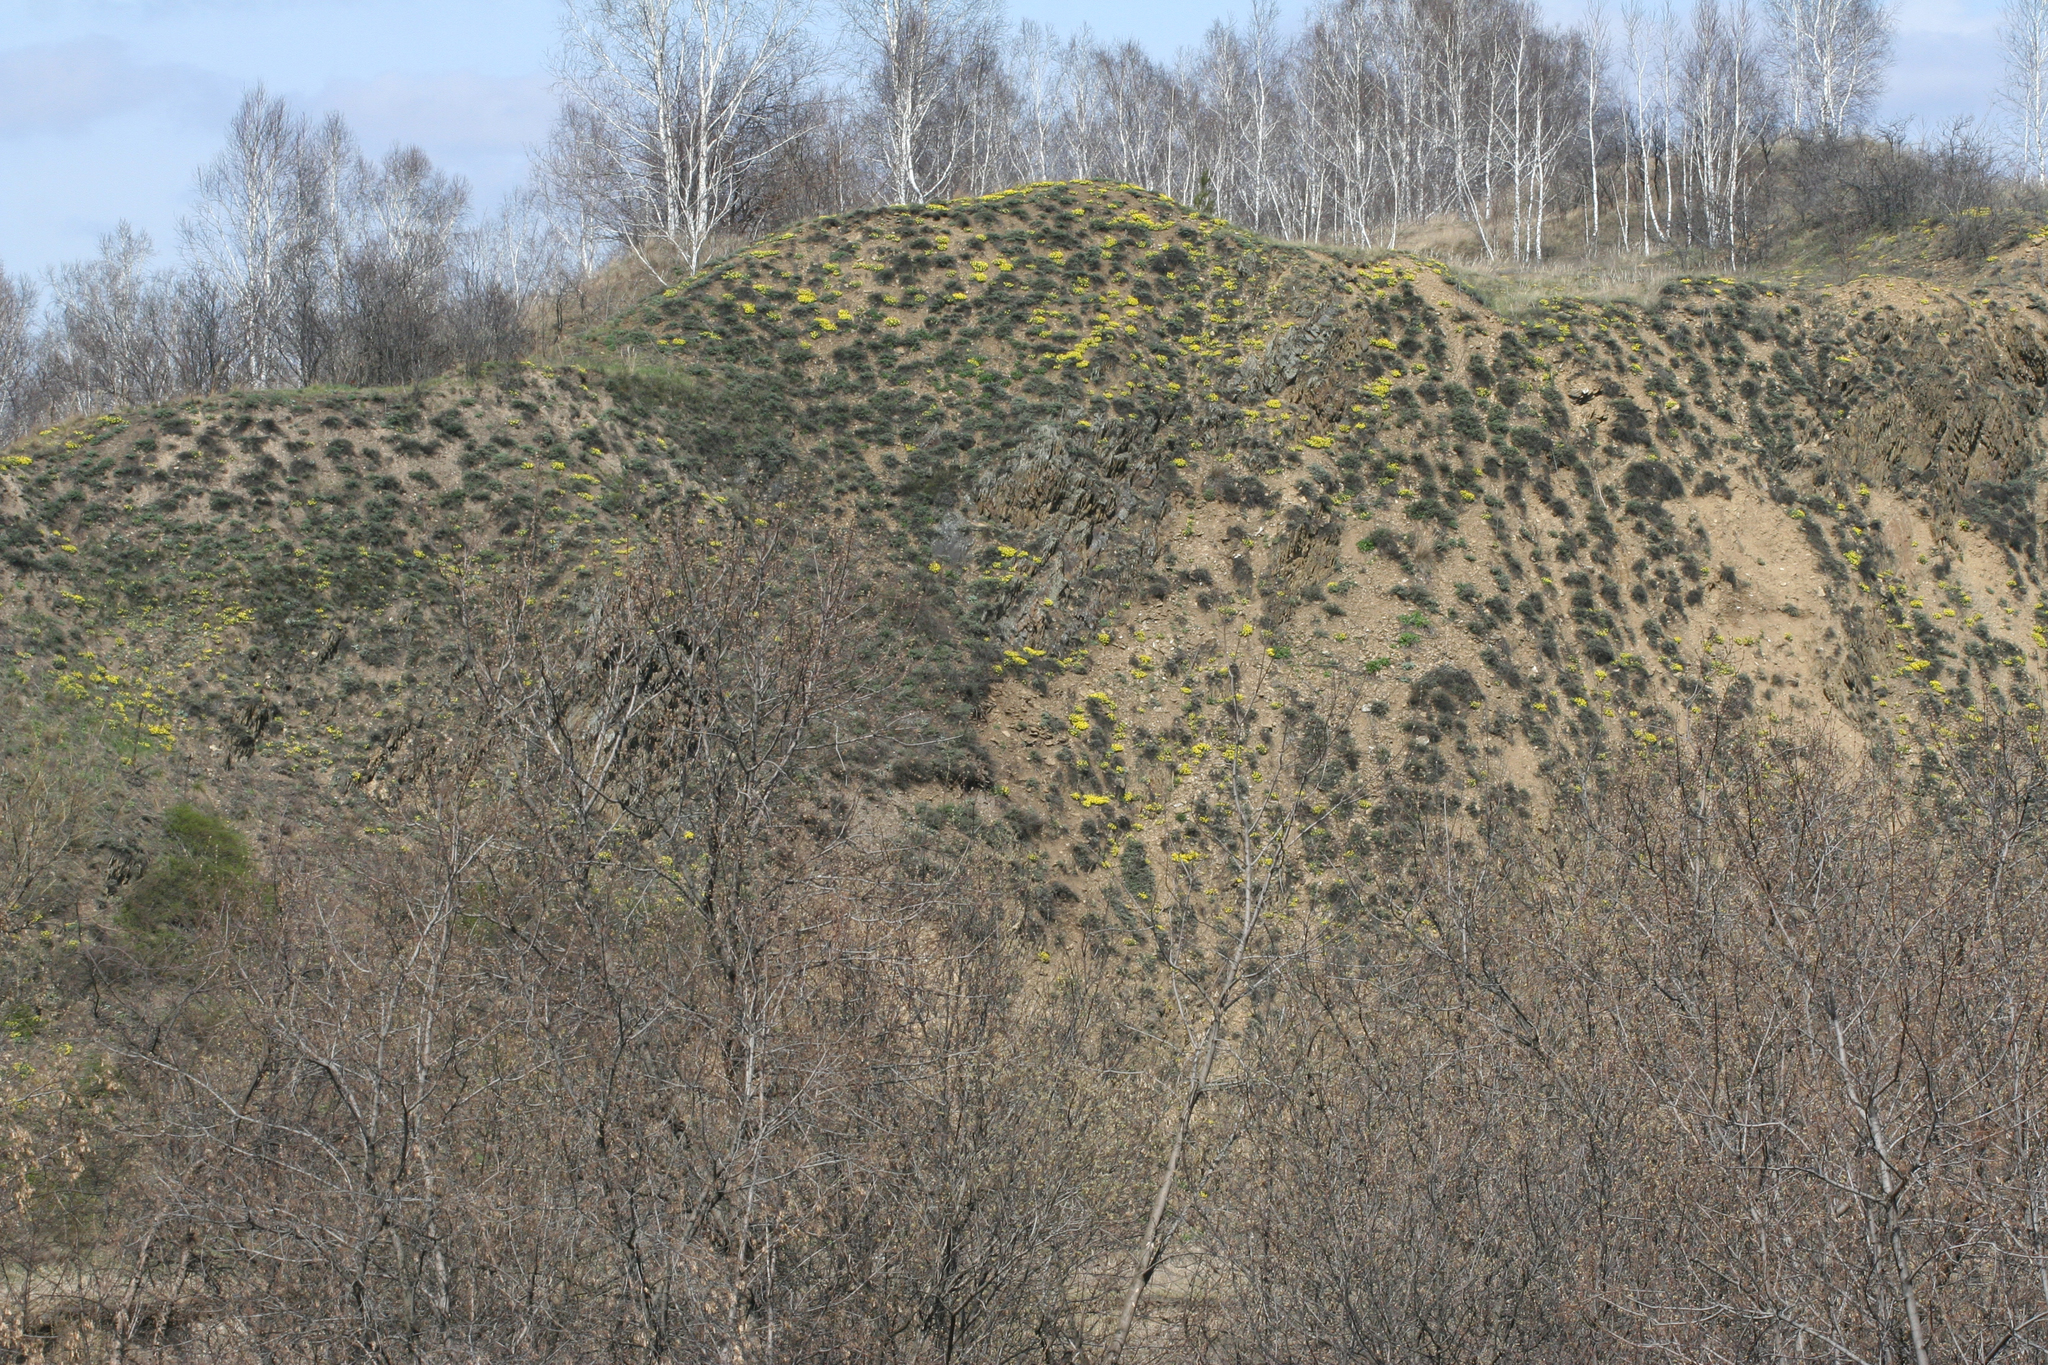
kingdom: Plantae
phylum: Tracheophyta
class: Magnoliopsida
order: Brassicales
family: Brassicaceae
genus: Alyssum
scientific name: Alyssum lenense
